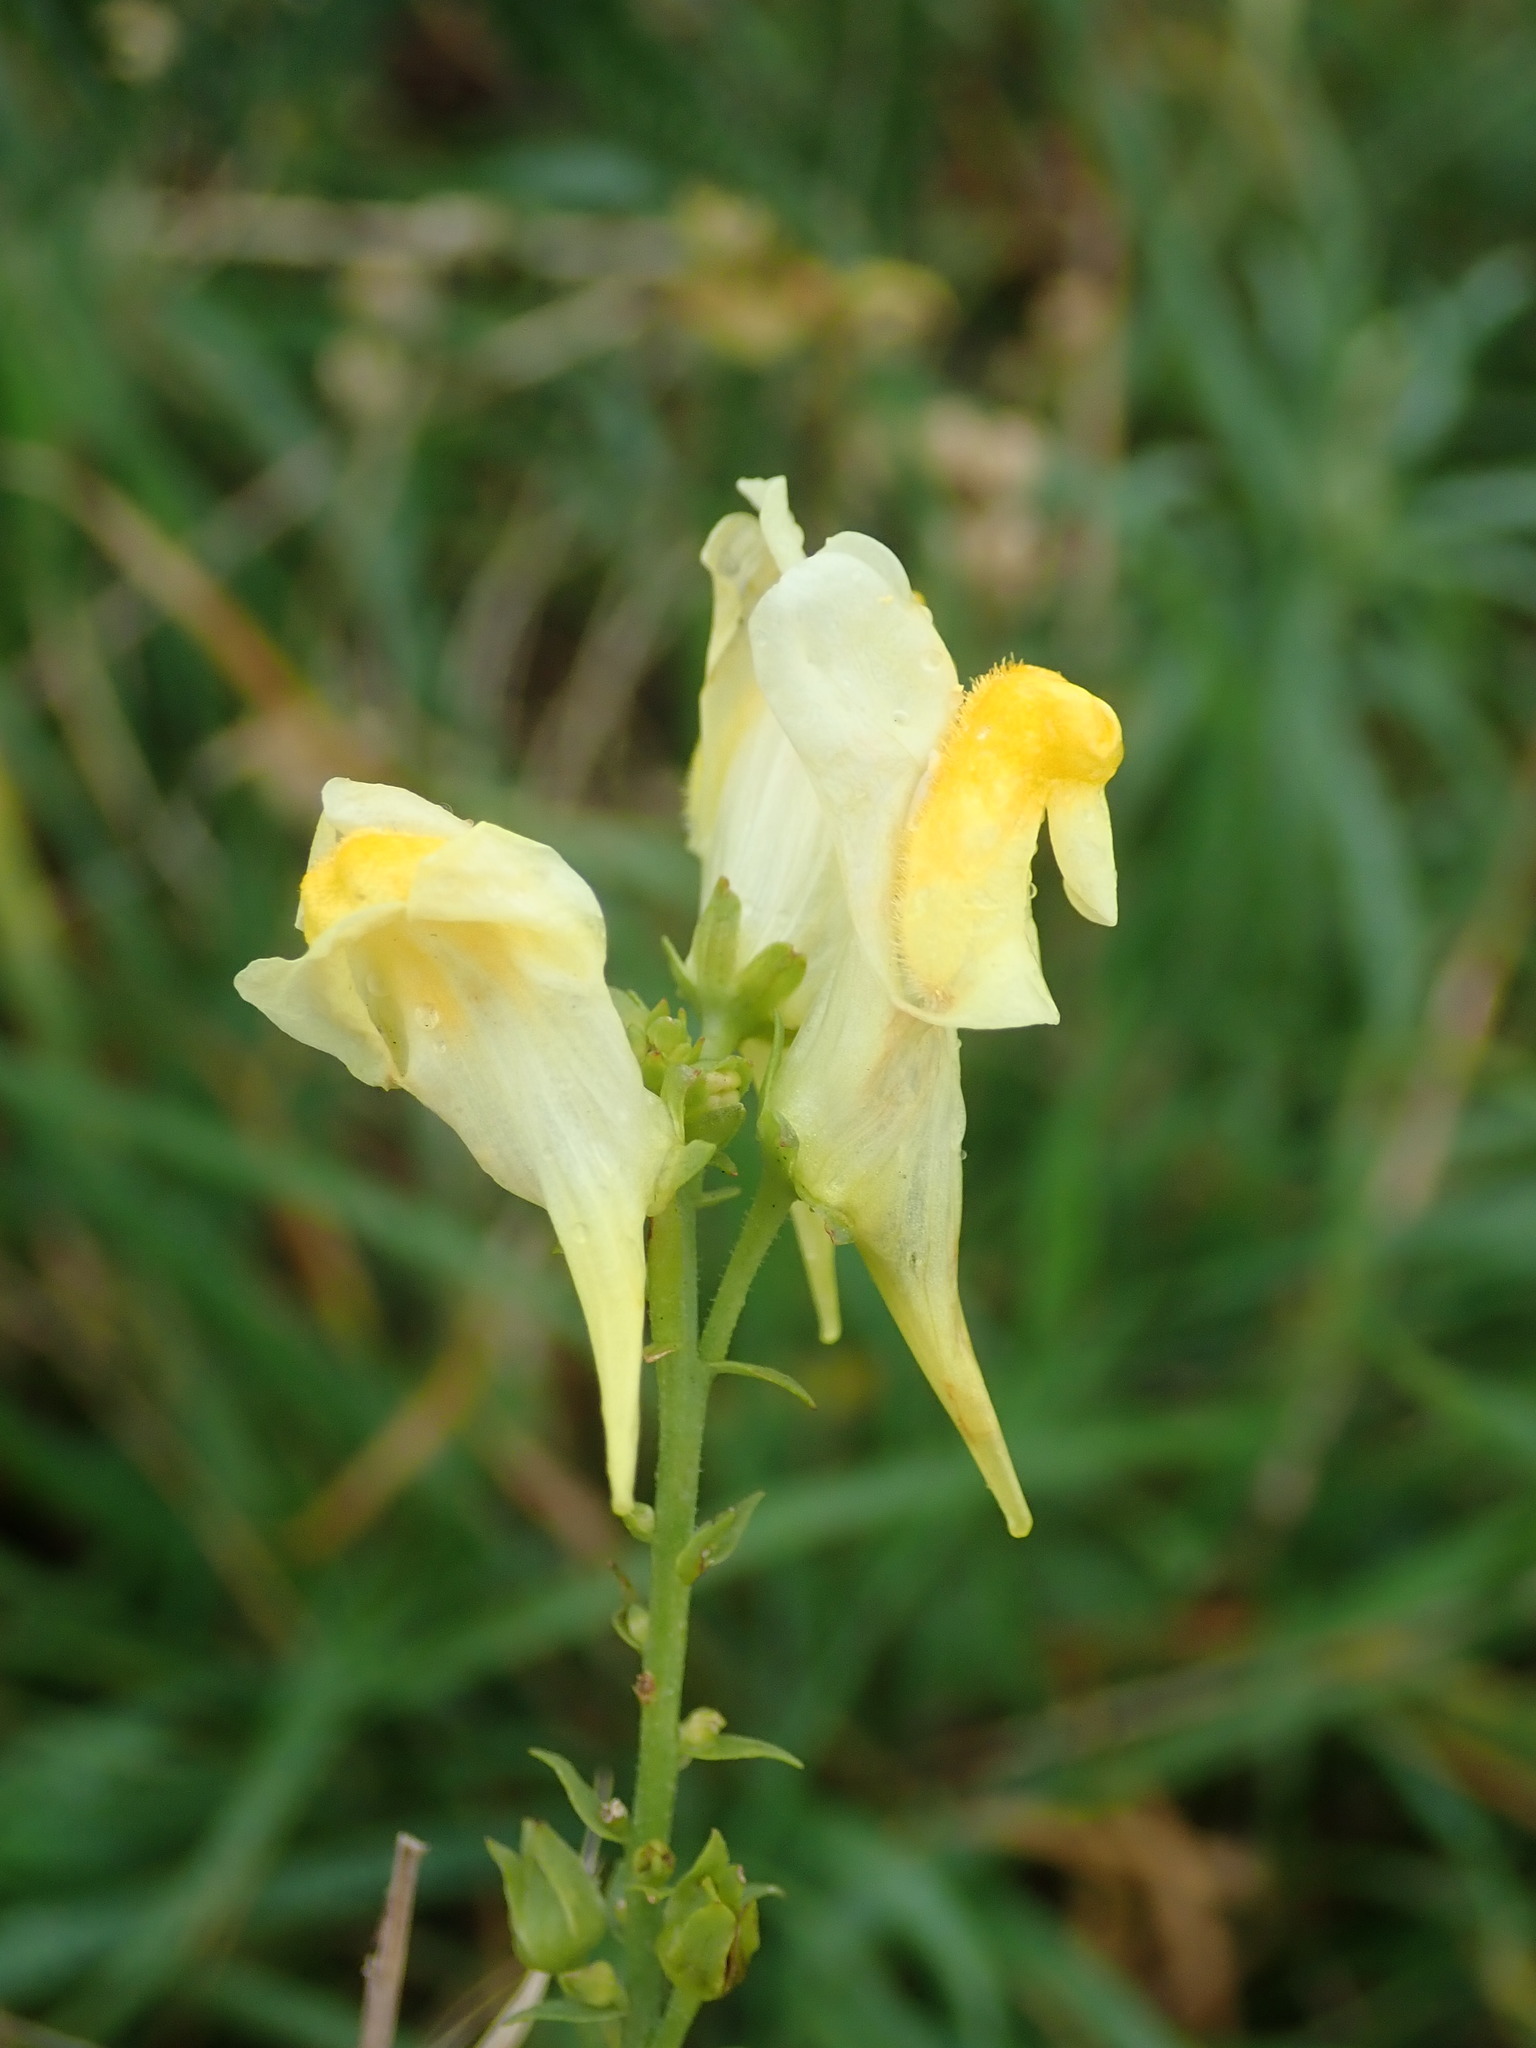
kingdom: Plantae
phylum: Tracheophyta
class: Magnoliopsida
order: Lamiales
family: Plantaginaceae
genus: Linaria
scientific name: Linaria vulgaris
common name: Butter and eggs
